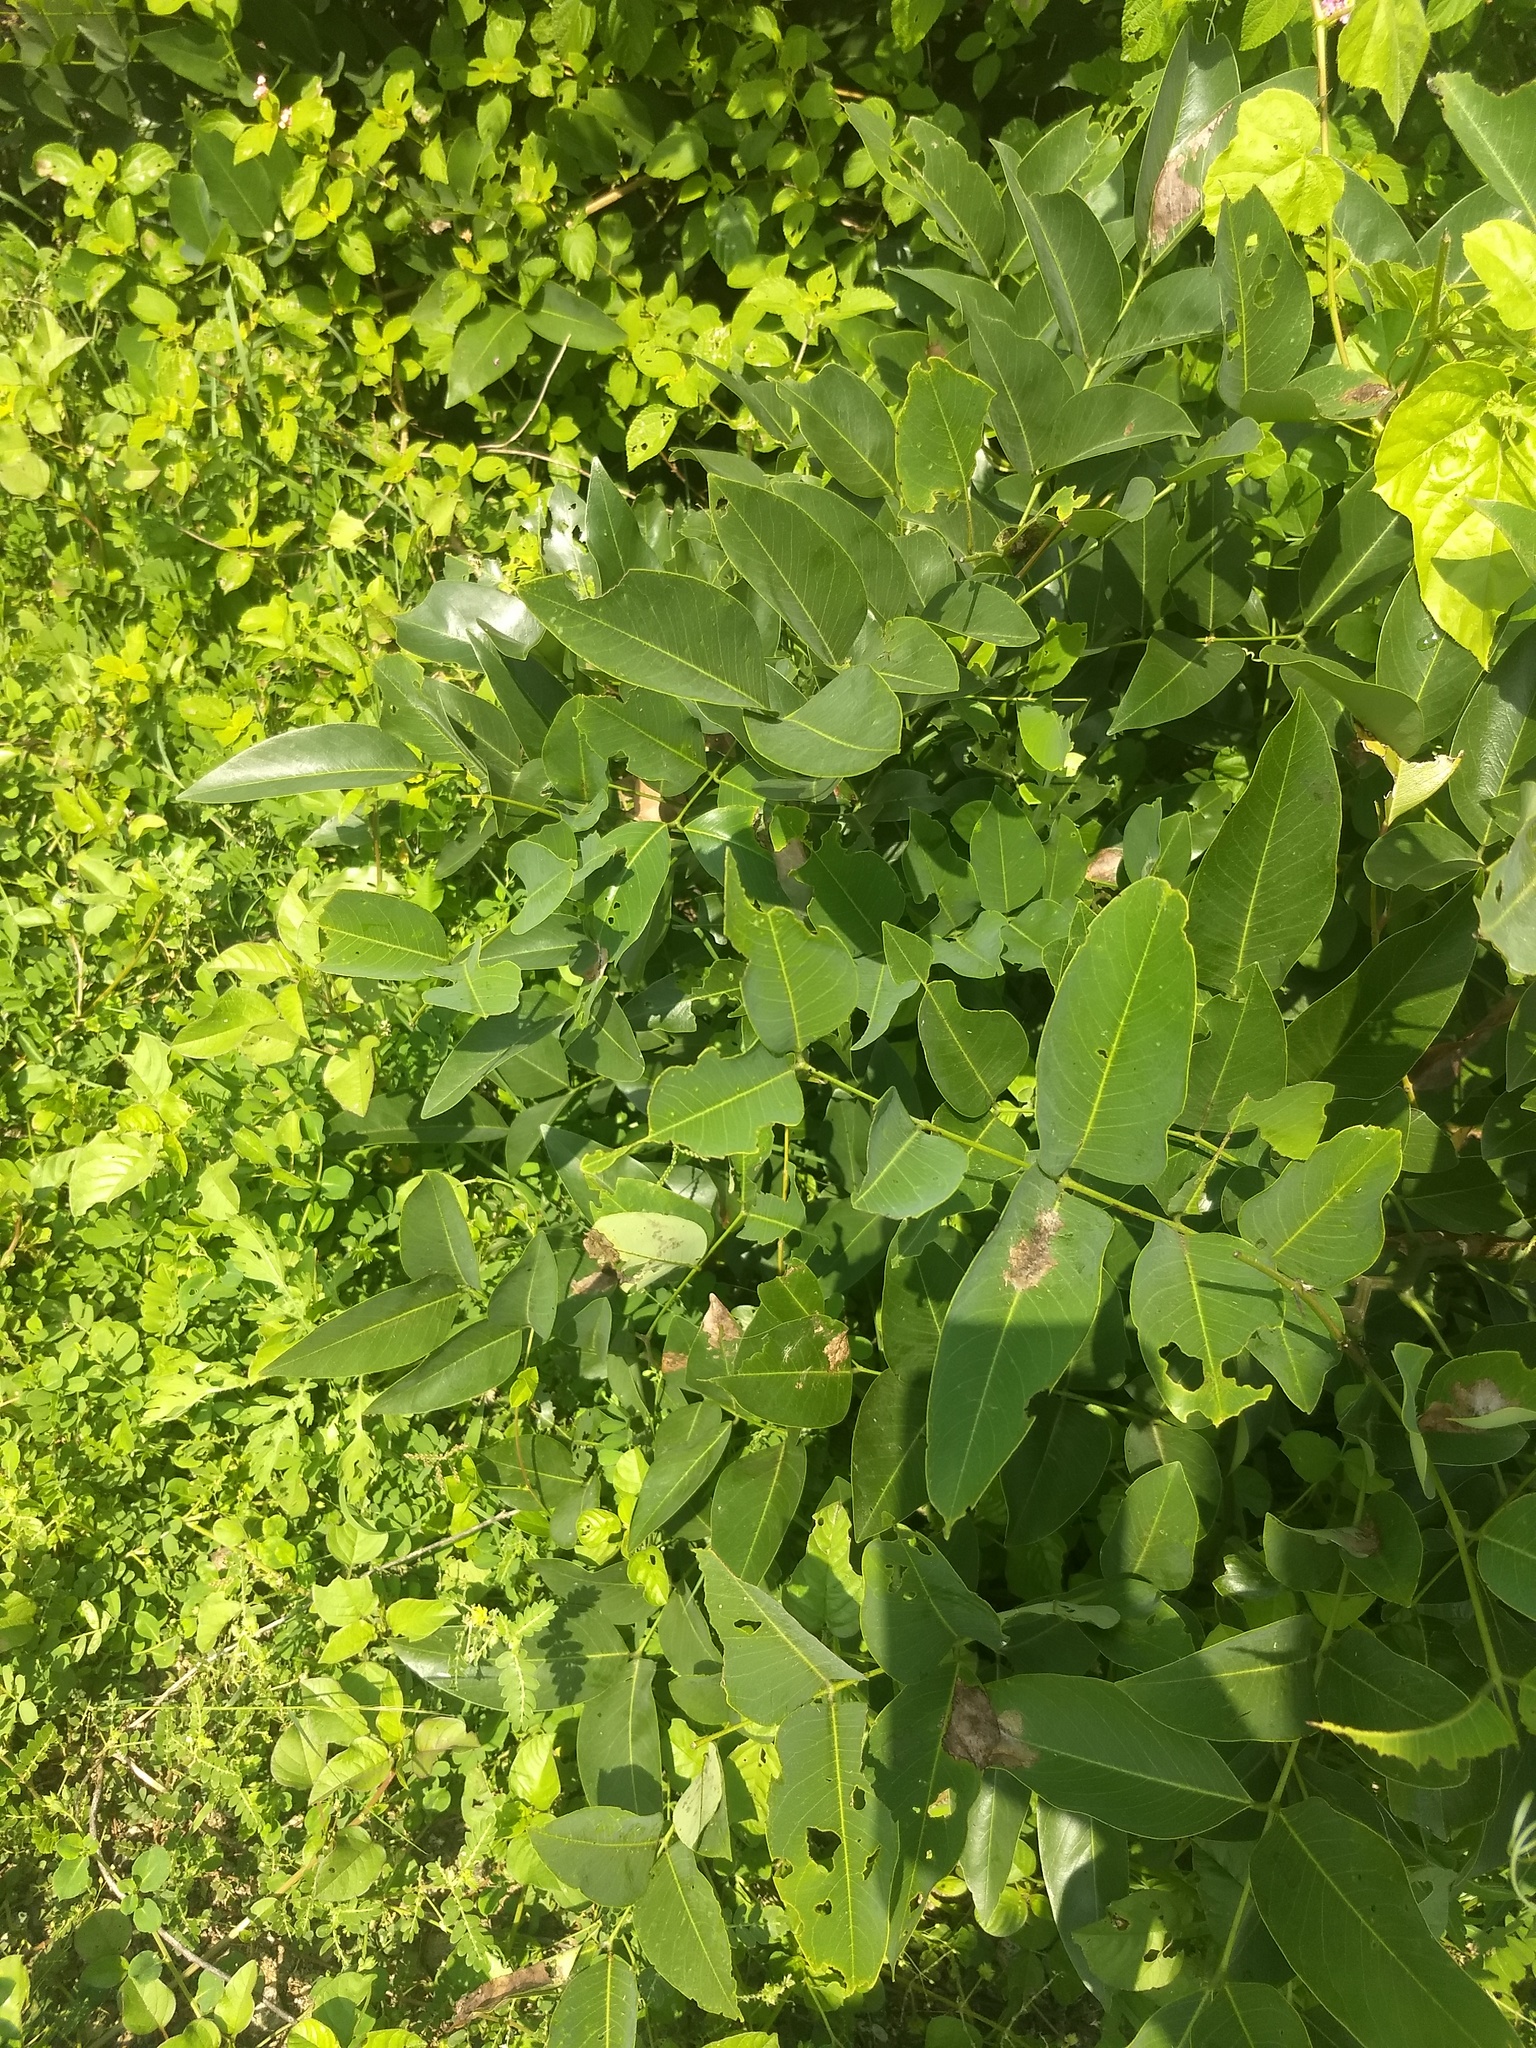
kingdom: Plantae
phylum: Tracheophyta
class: Magnoliopsida
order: Fabales
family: Fabaceae
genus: Cassia
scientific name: Cassia fistula
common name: Golden shower
